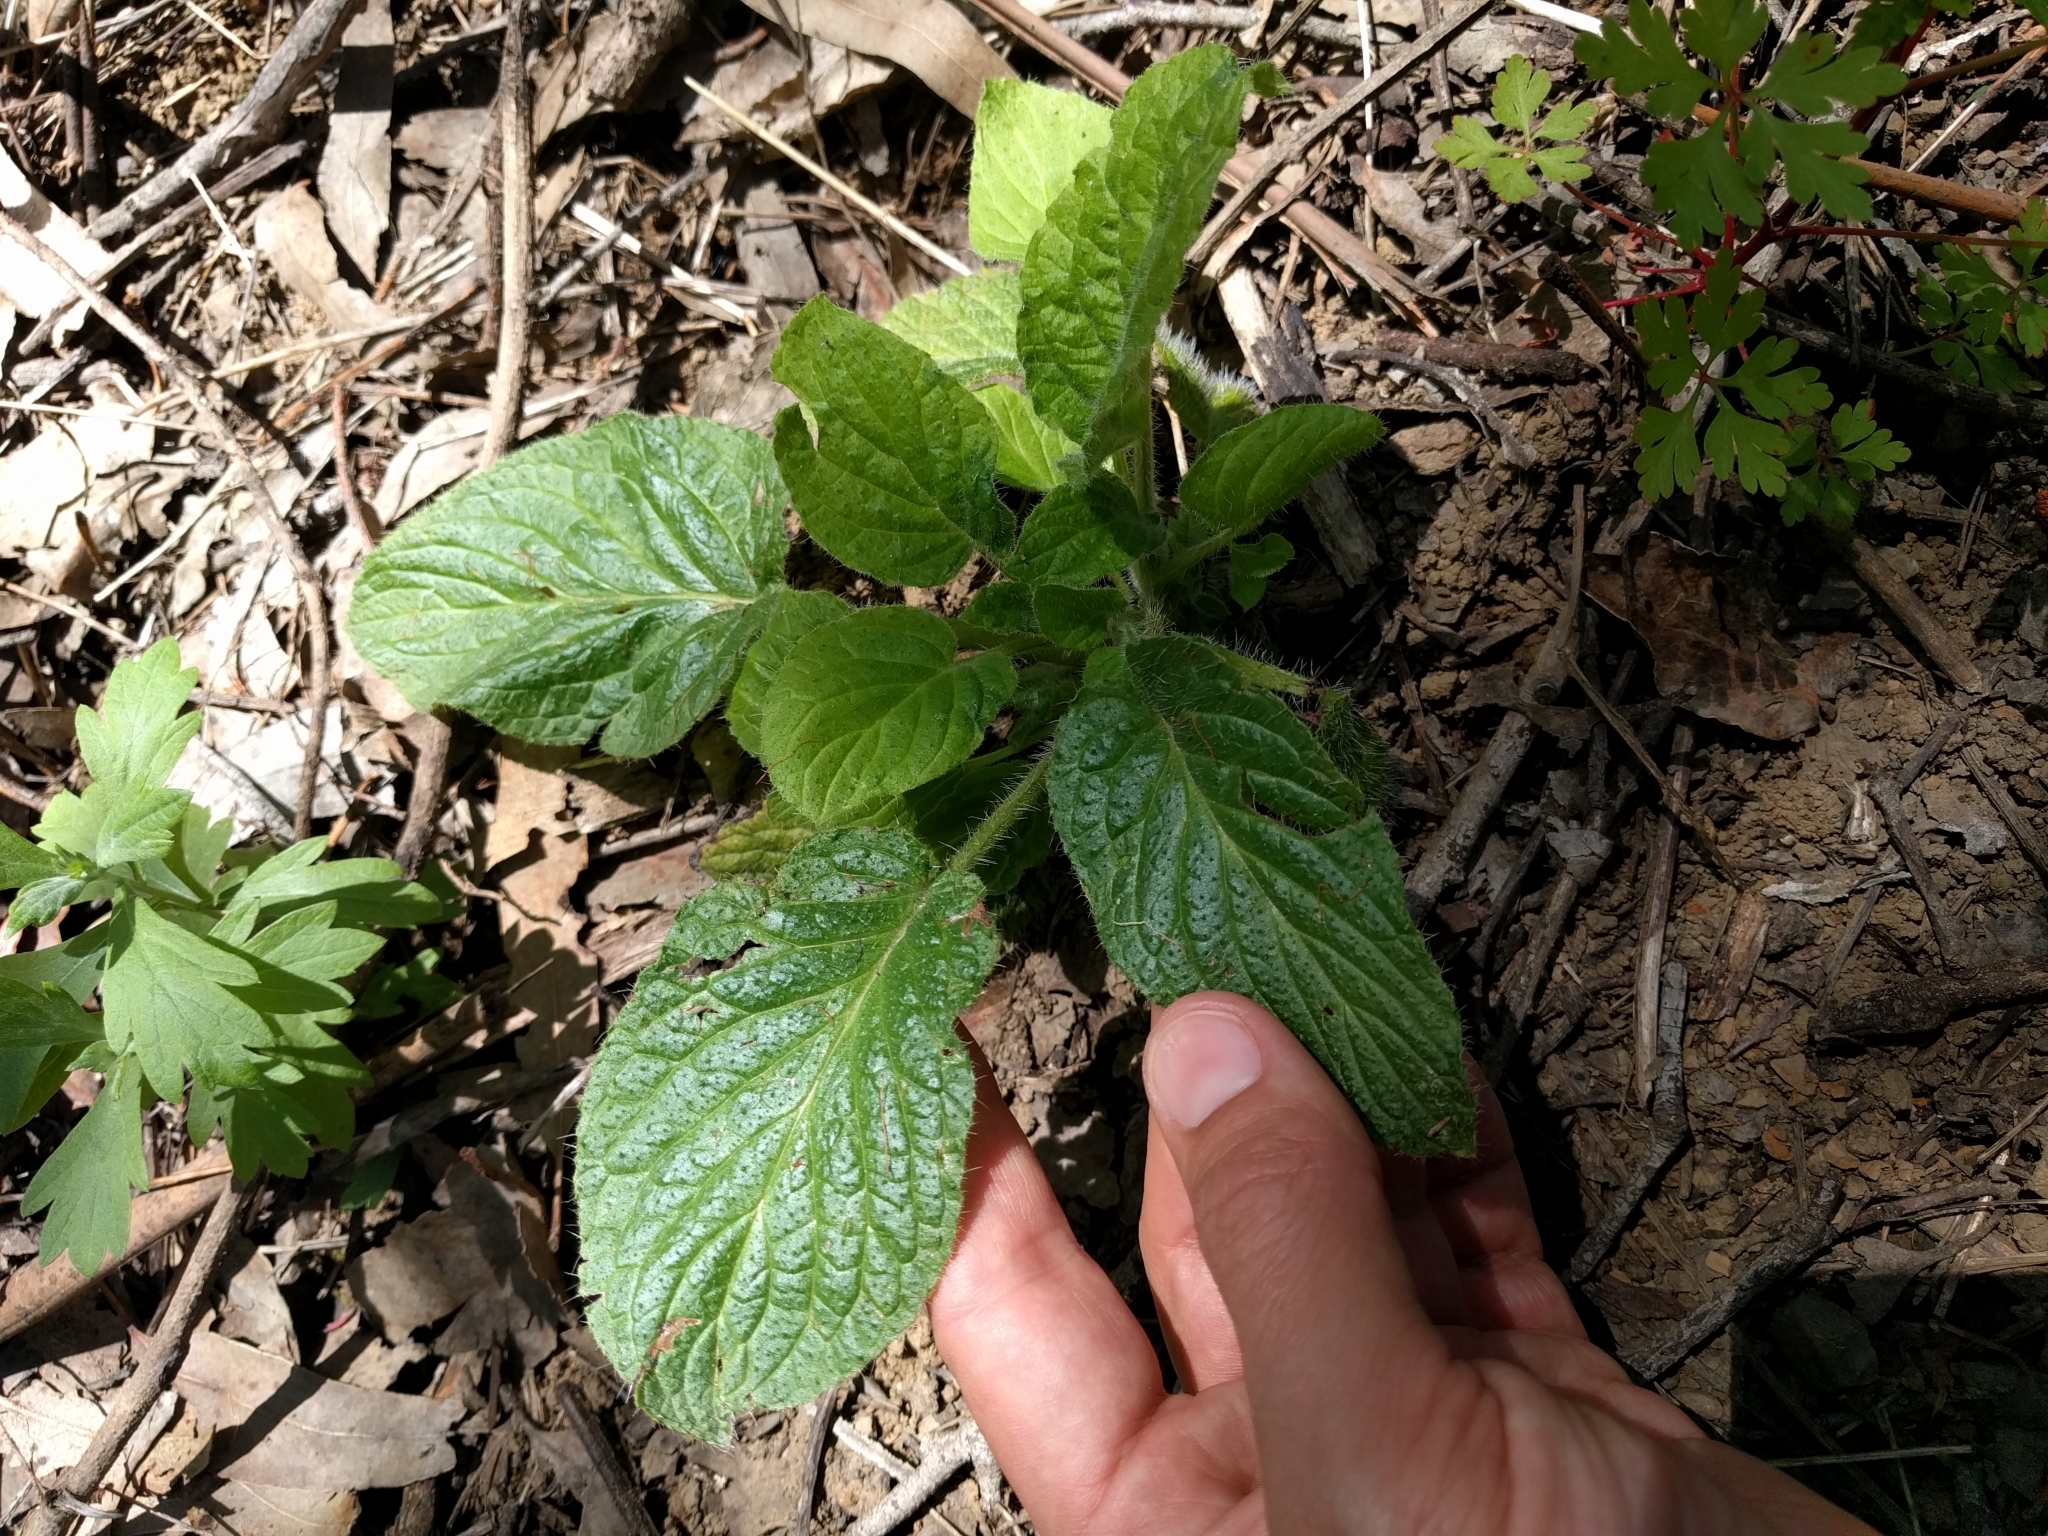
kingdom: Plantae
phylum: Tracheophyta
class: Magnoliopsida
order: Boraginales
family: Hydrophyllaceae
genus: Phacelia
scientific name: Phacelia nemoralis
